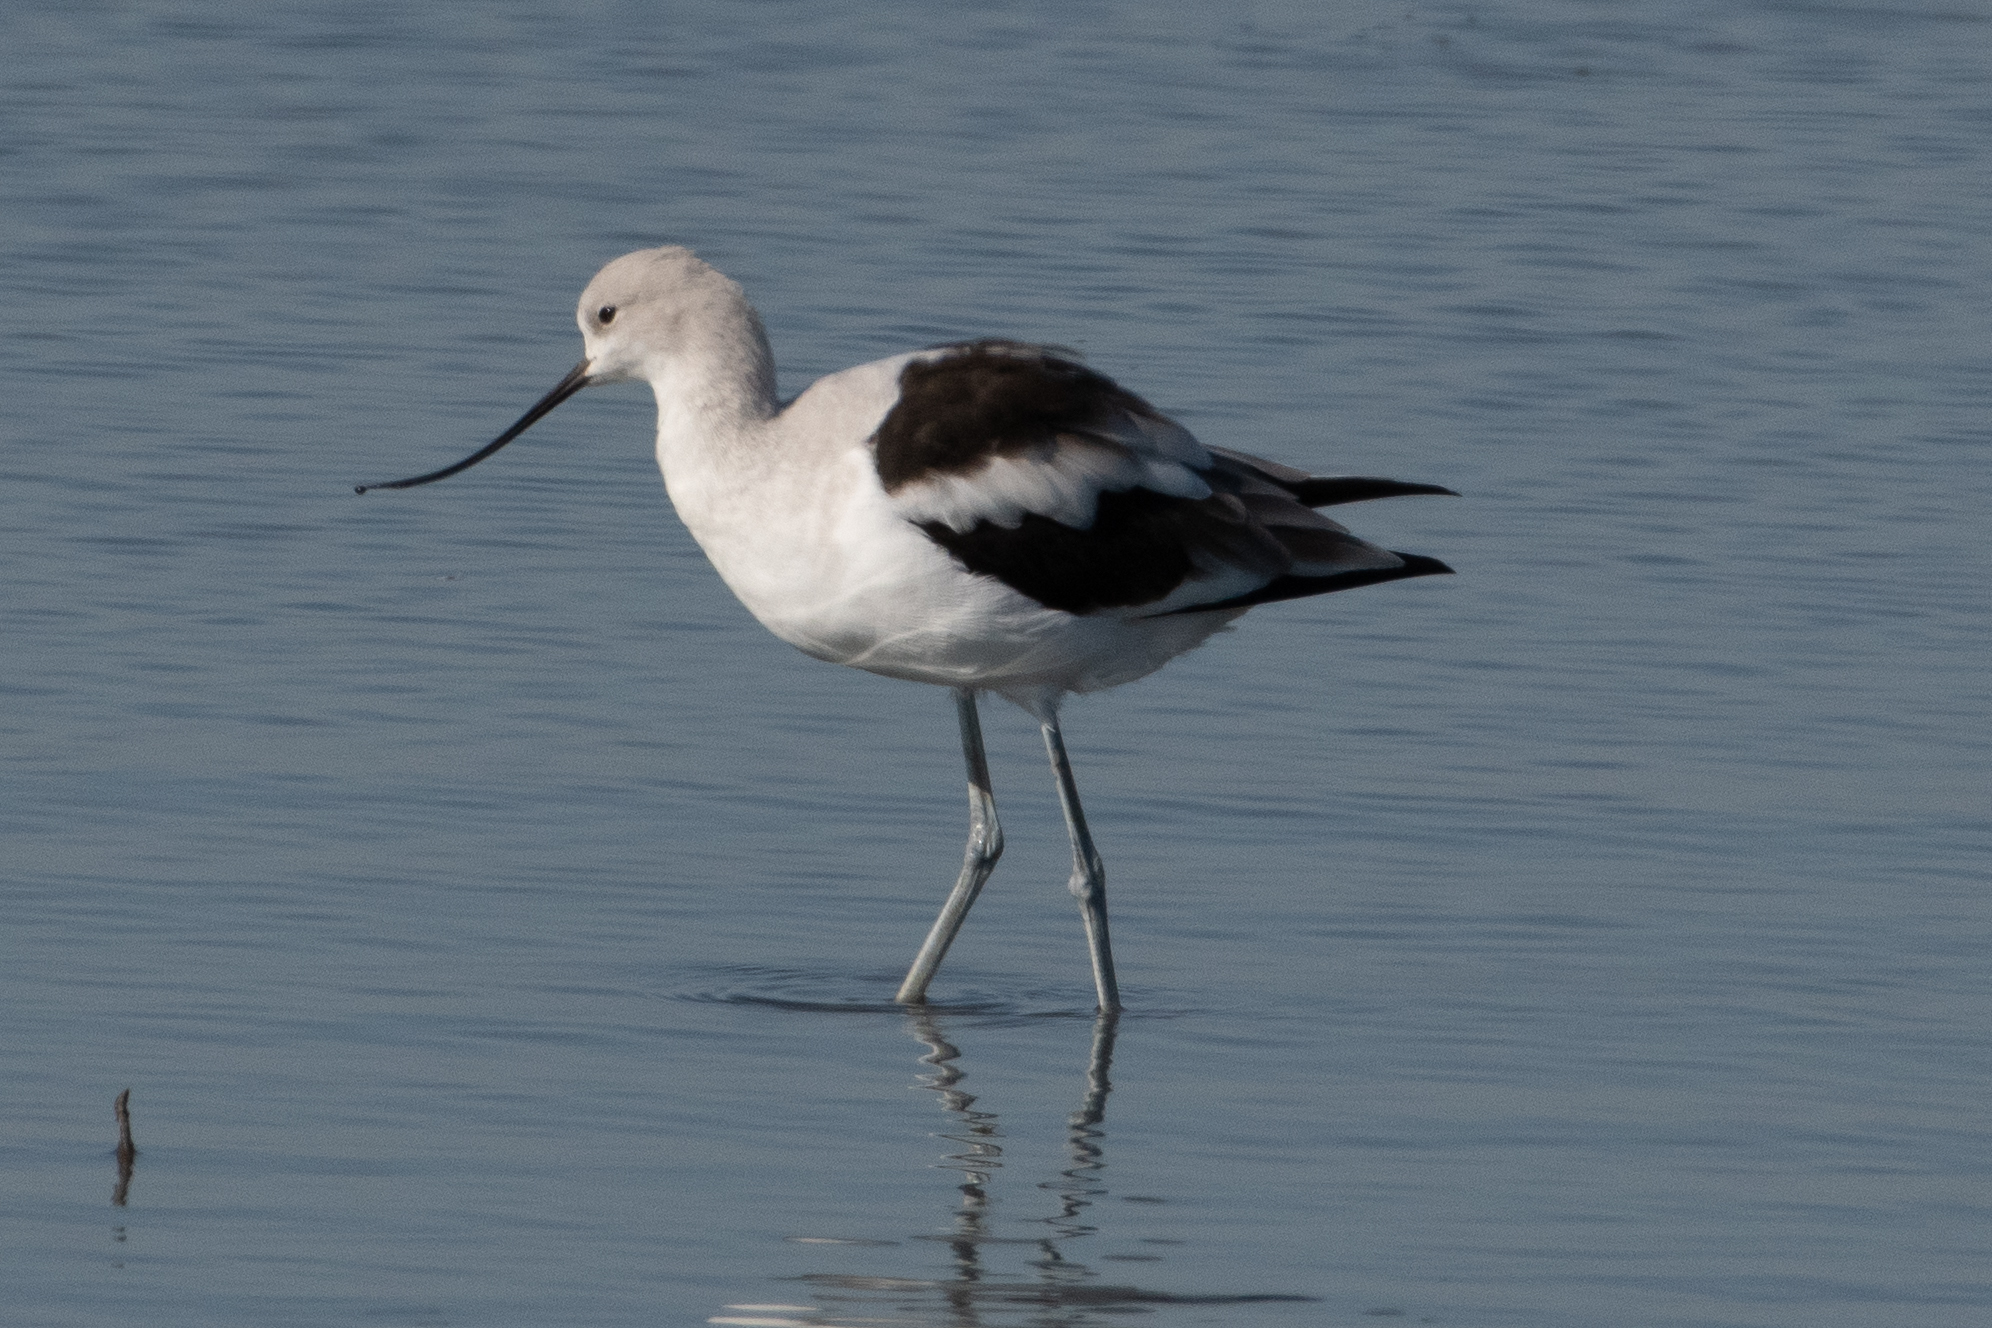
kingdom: Animalia
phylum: Chordata
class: Aves
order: Charadriiformes
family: Recurvirostridae
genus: Recurvirostra
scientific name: Recurvirostra americana
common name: American avocet
